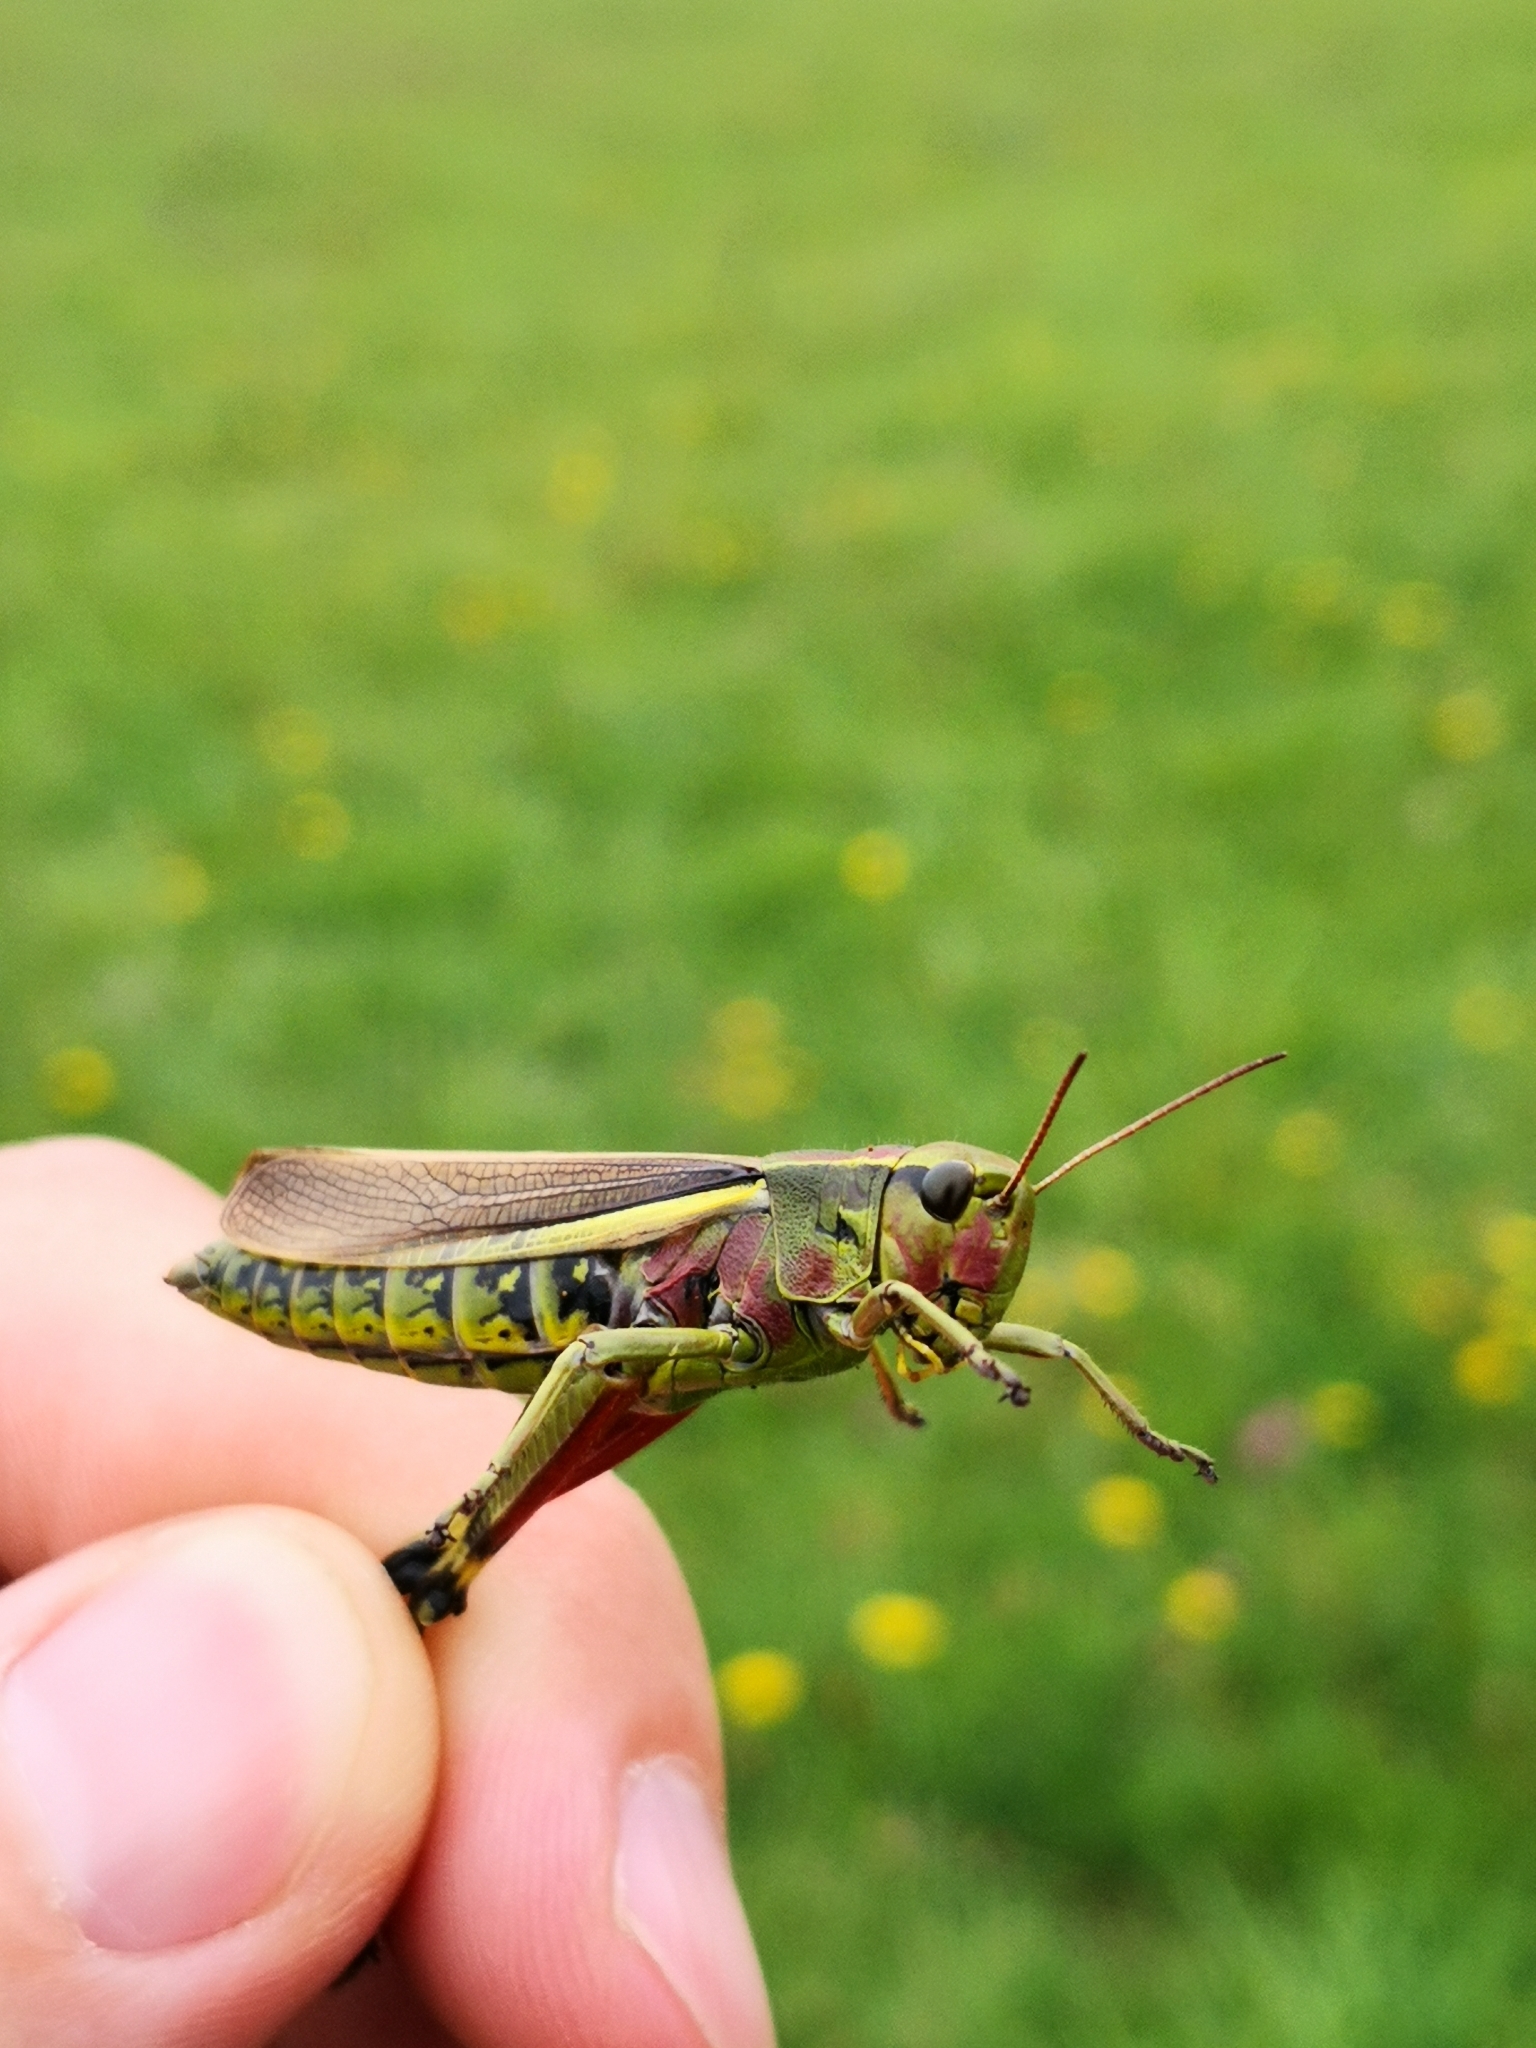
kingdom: Animalia
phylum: Arthropoda
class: Insecta
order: Orthoptera
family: Acrididae
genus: Stethophyma
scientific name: Stethophyma grossum
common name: Large marsh grasshopper
